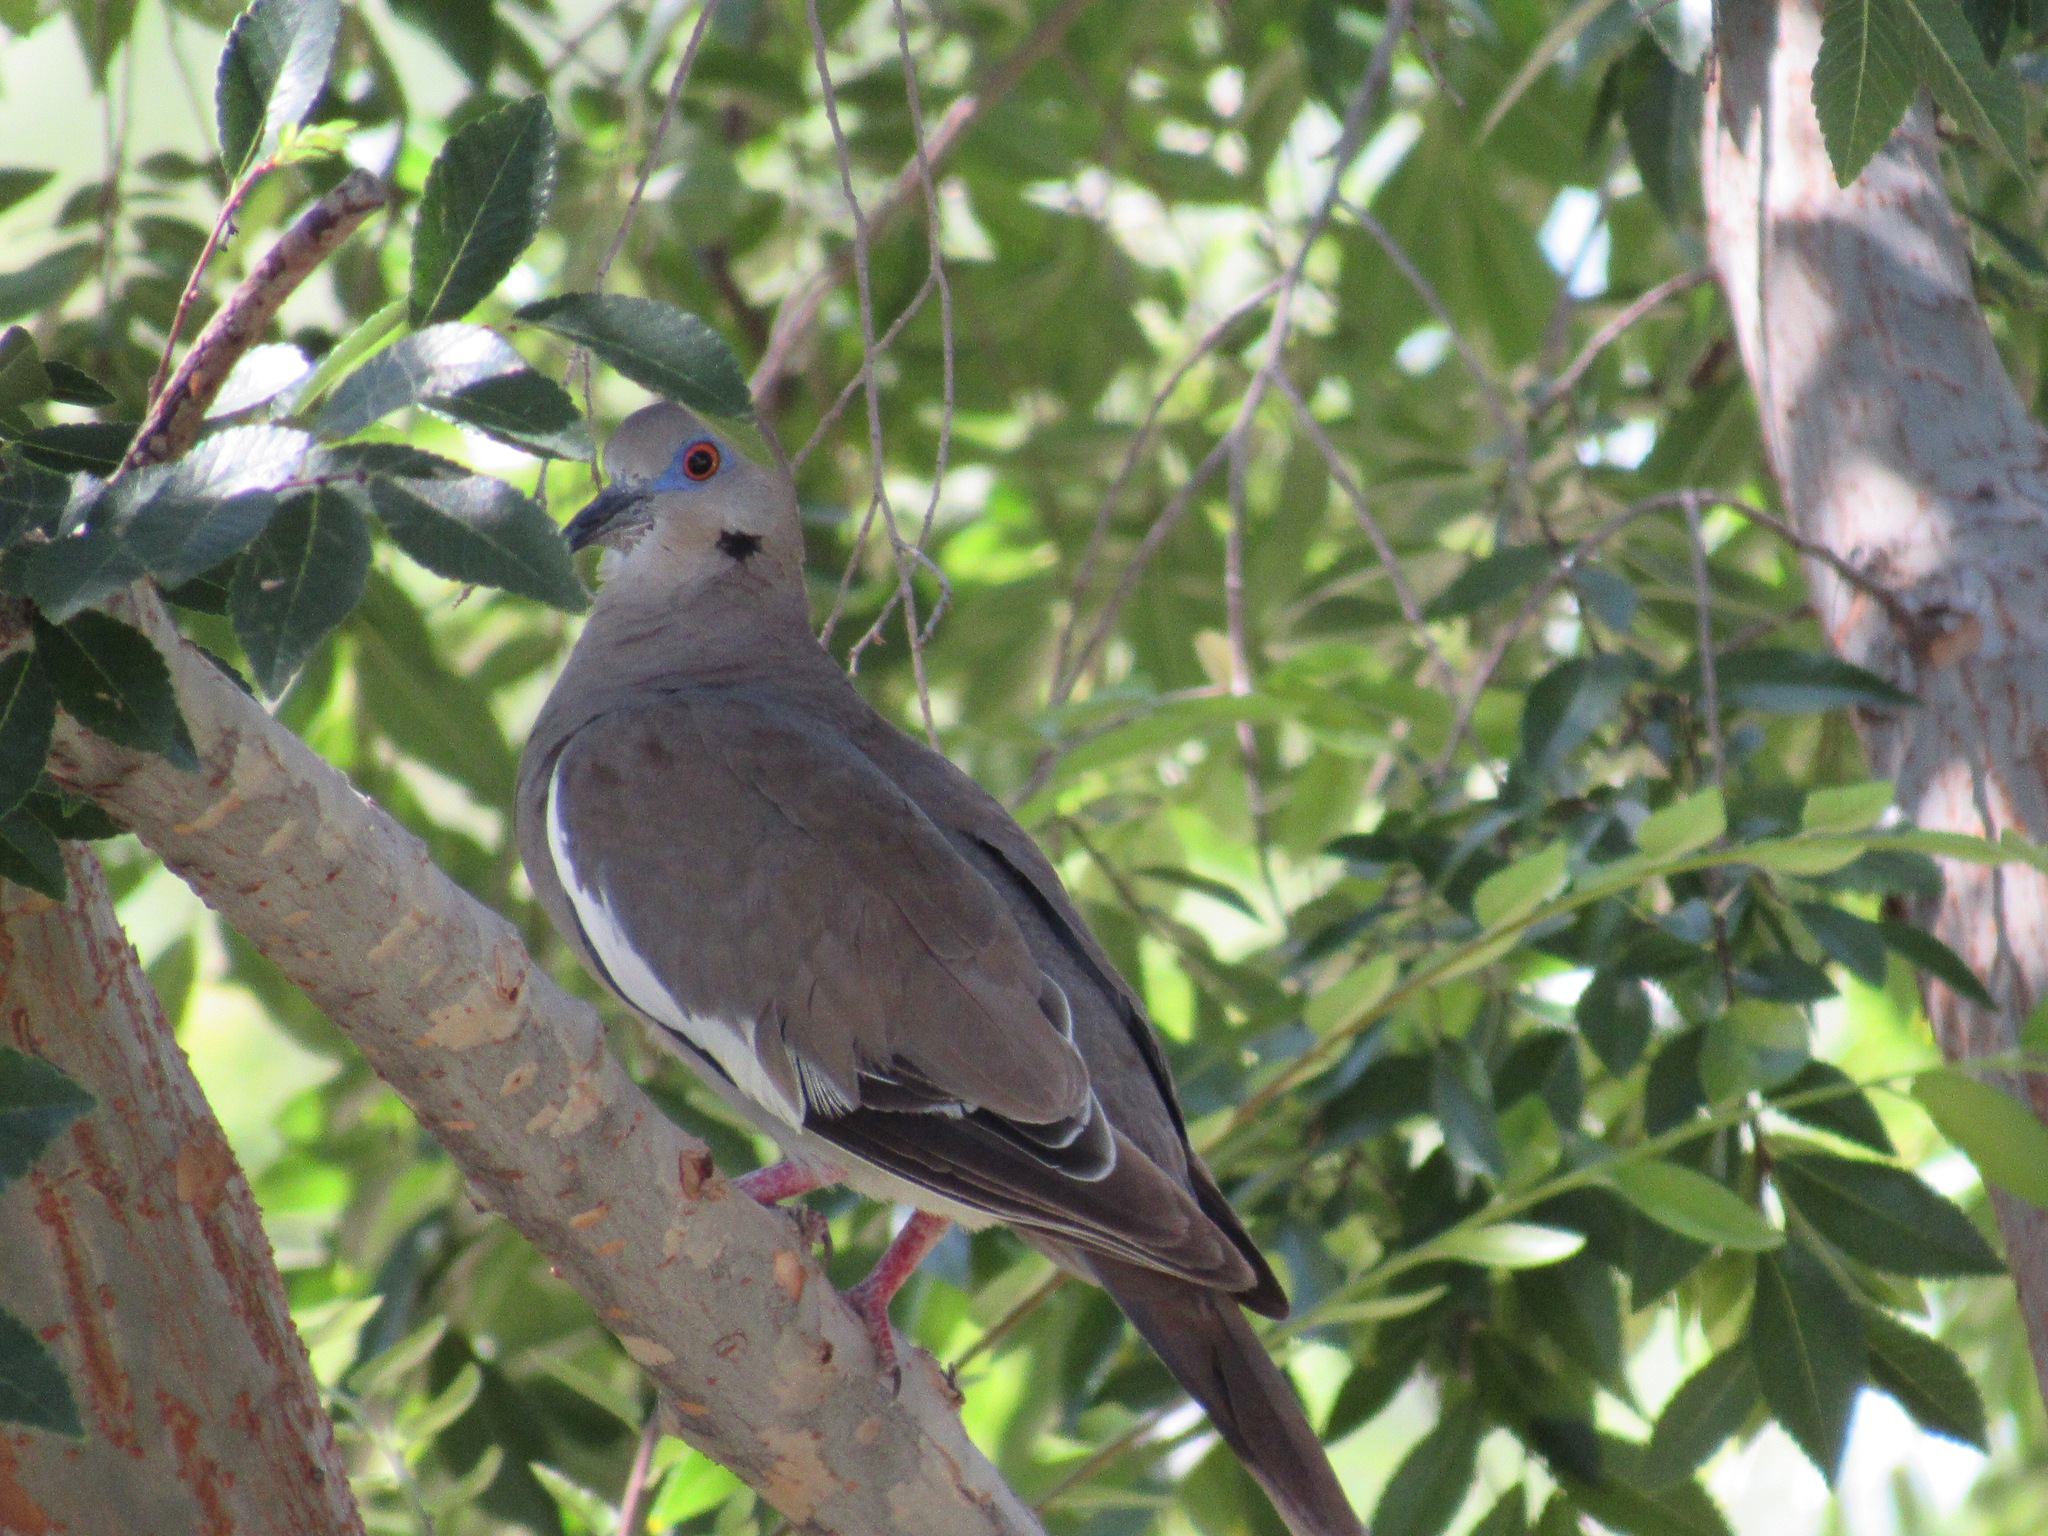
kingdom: Animalia
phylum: Chordata
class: Aves
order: Columbiformes
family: Columbidae
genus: Zenaida
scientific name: Zenaida asiatica
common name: White-winged dove
